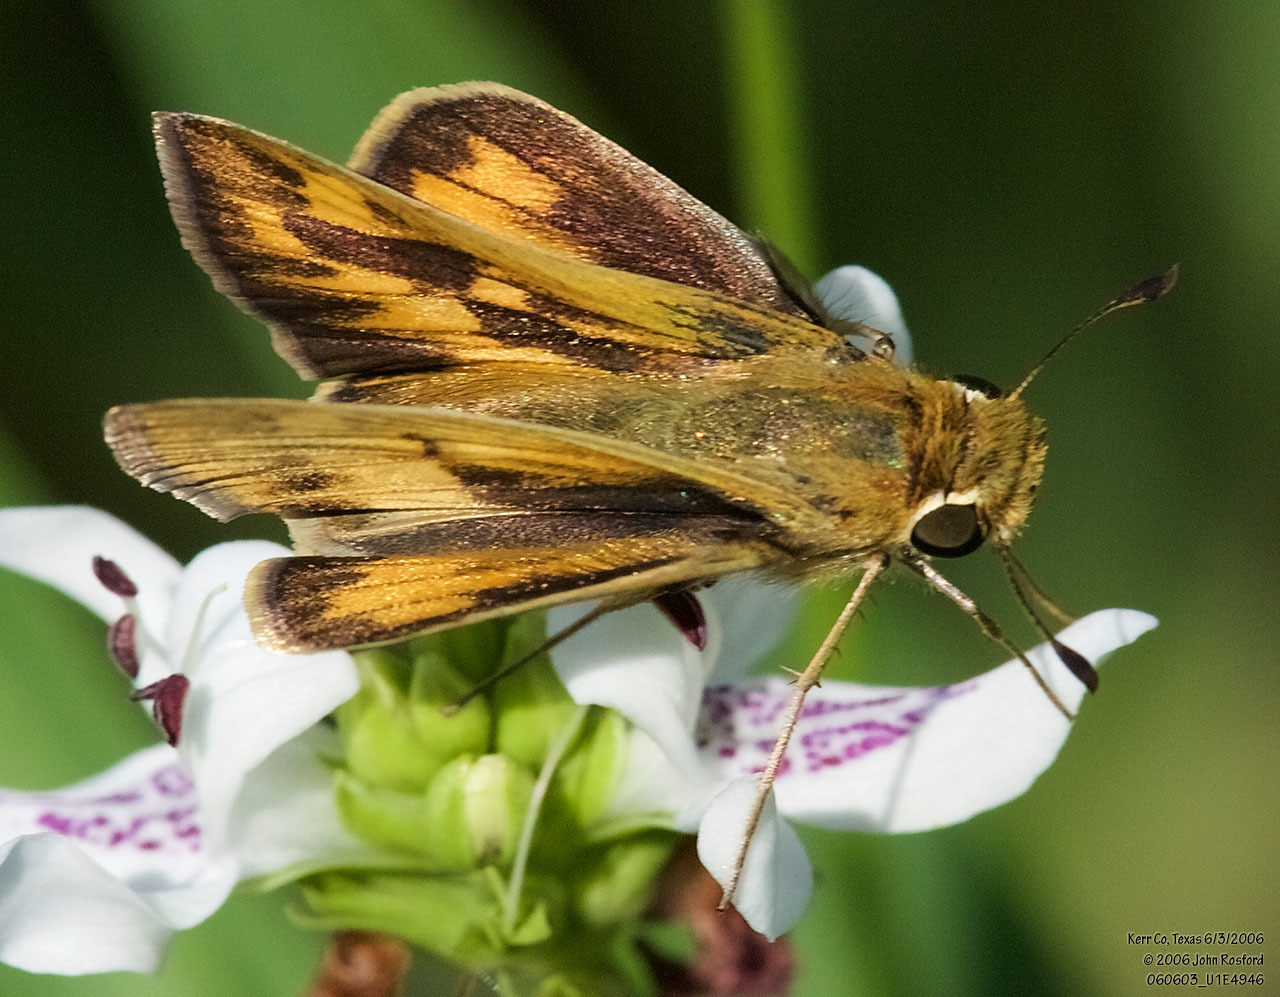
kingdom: Animalia
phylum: Arthropoda
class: Insecta
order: Lepidoptera
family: Hesperiidae
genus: Hylephila
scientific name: Hylephila phyleus
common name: Fiery skipper
